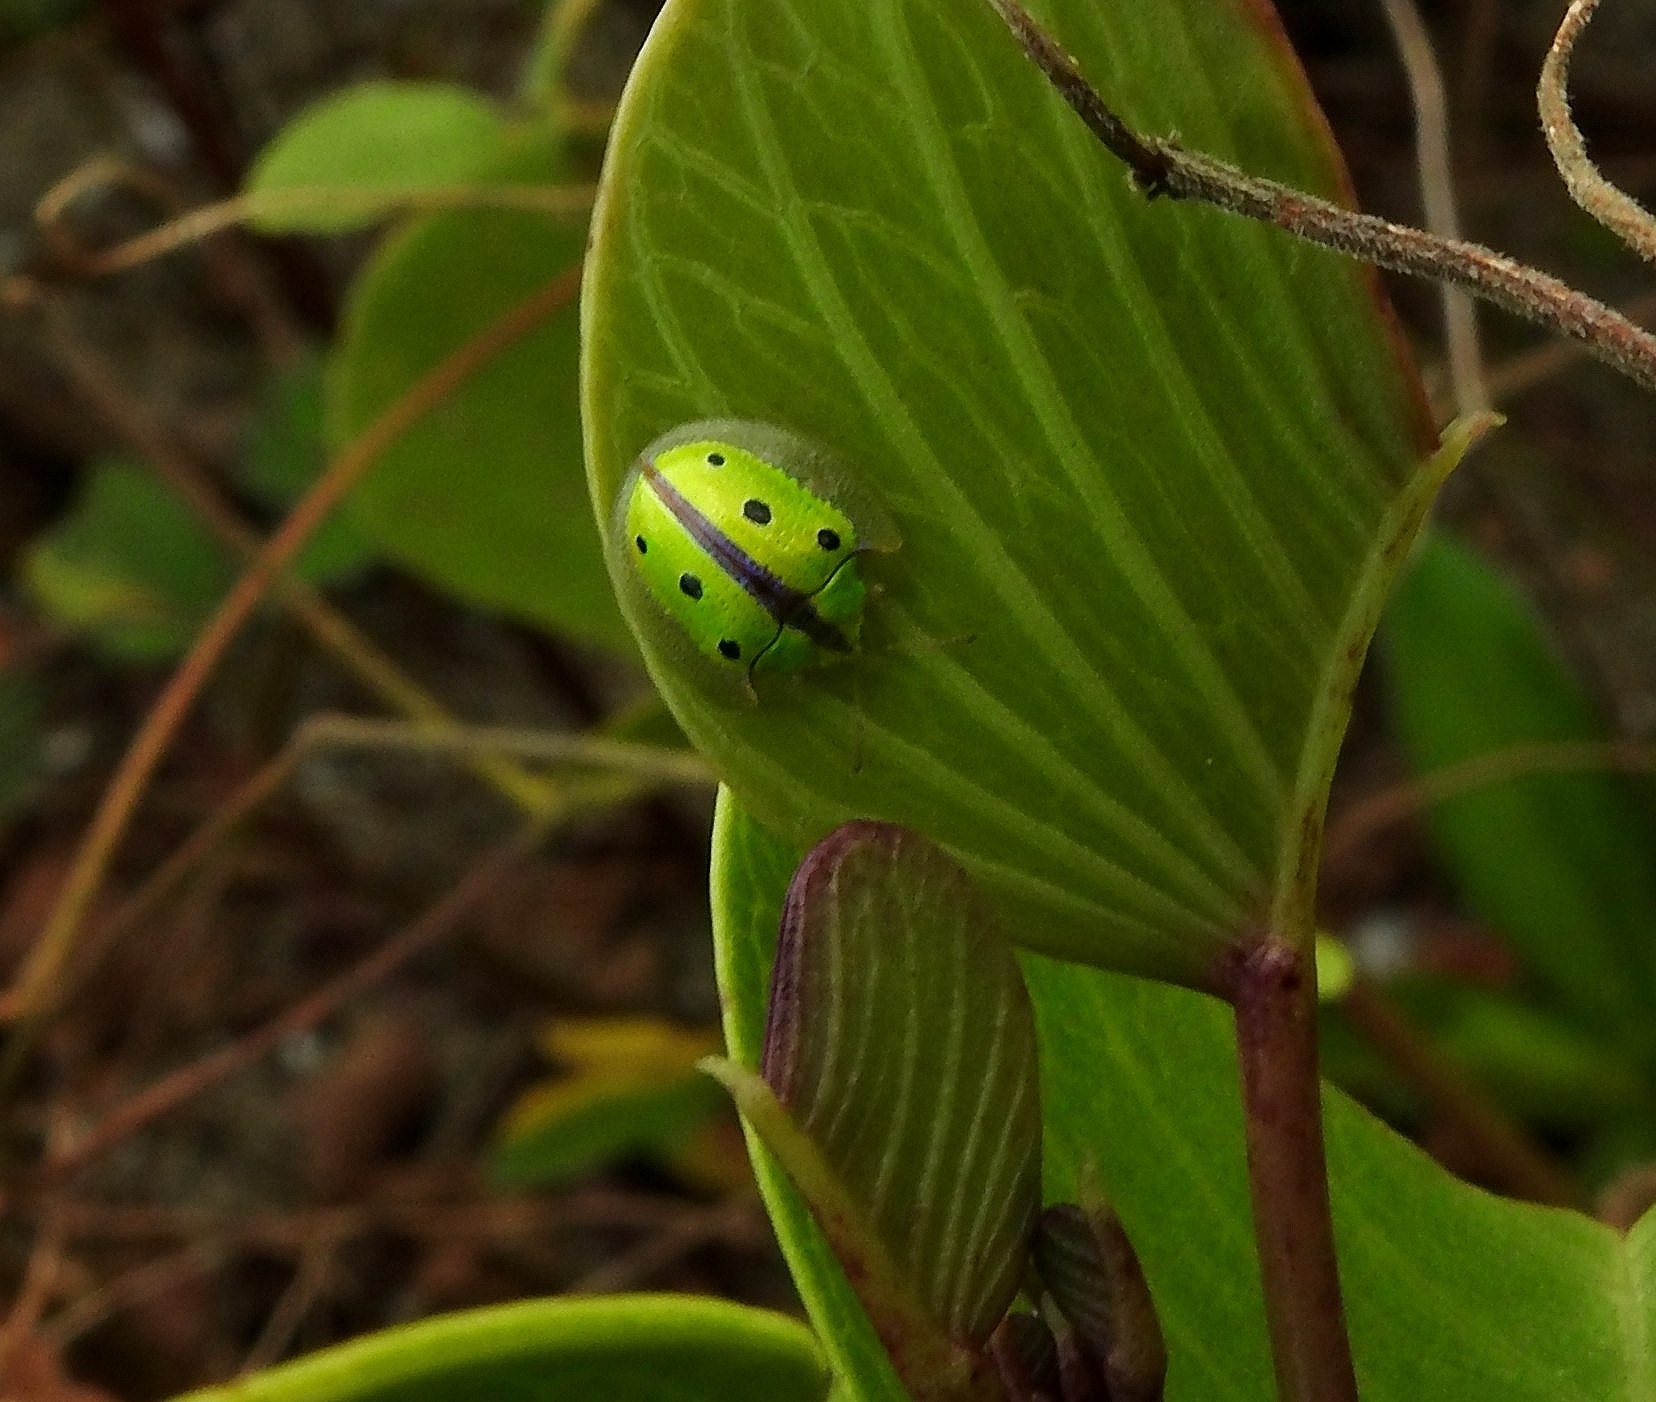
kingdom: Animalia
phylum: Arthropoda
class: Insecta
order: Coleoptera
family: Chrysomelidae
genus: Chiridopsis
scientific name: Chiridopsis bipunctata
